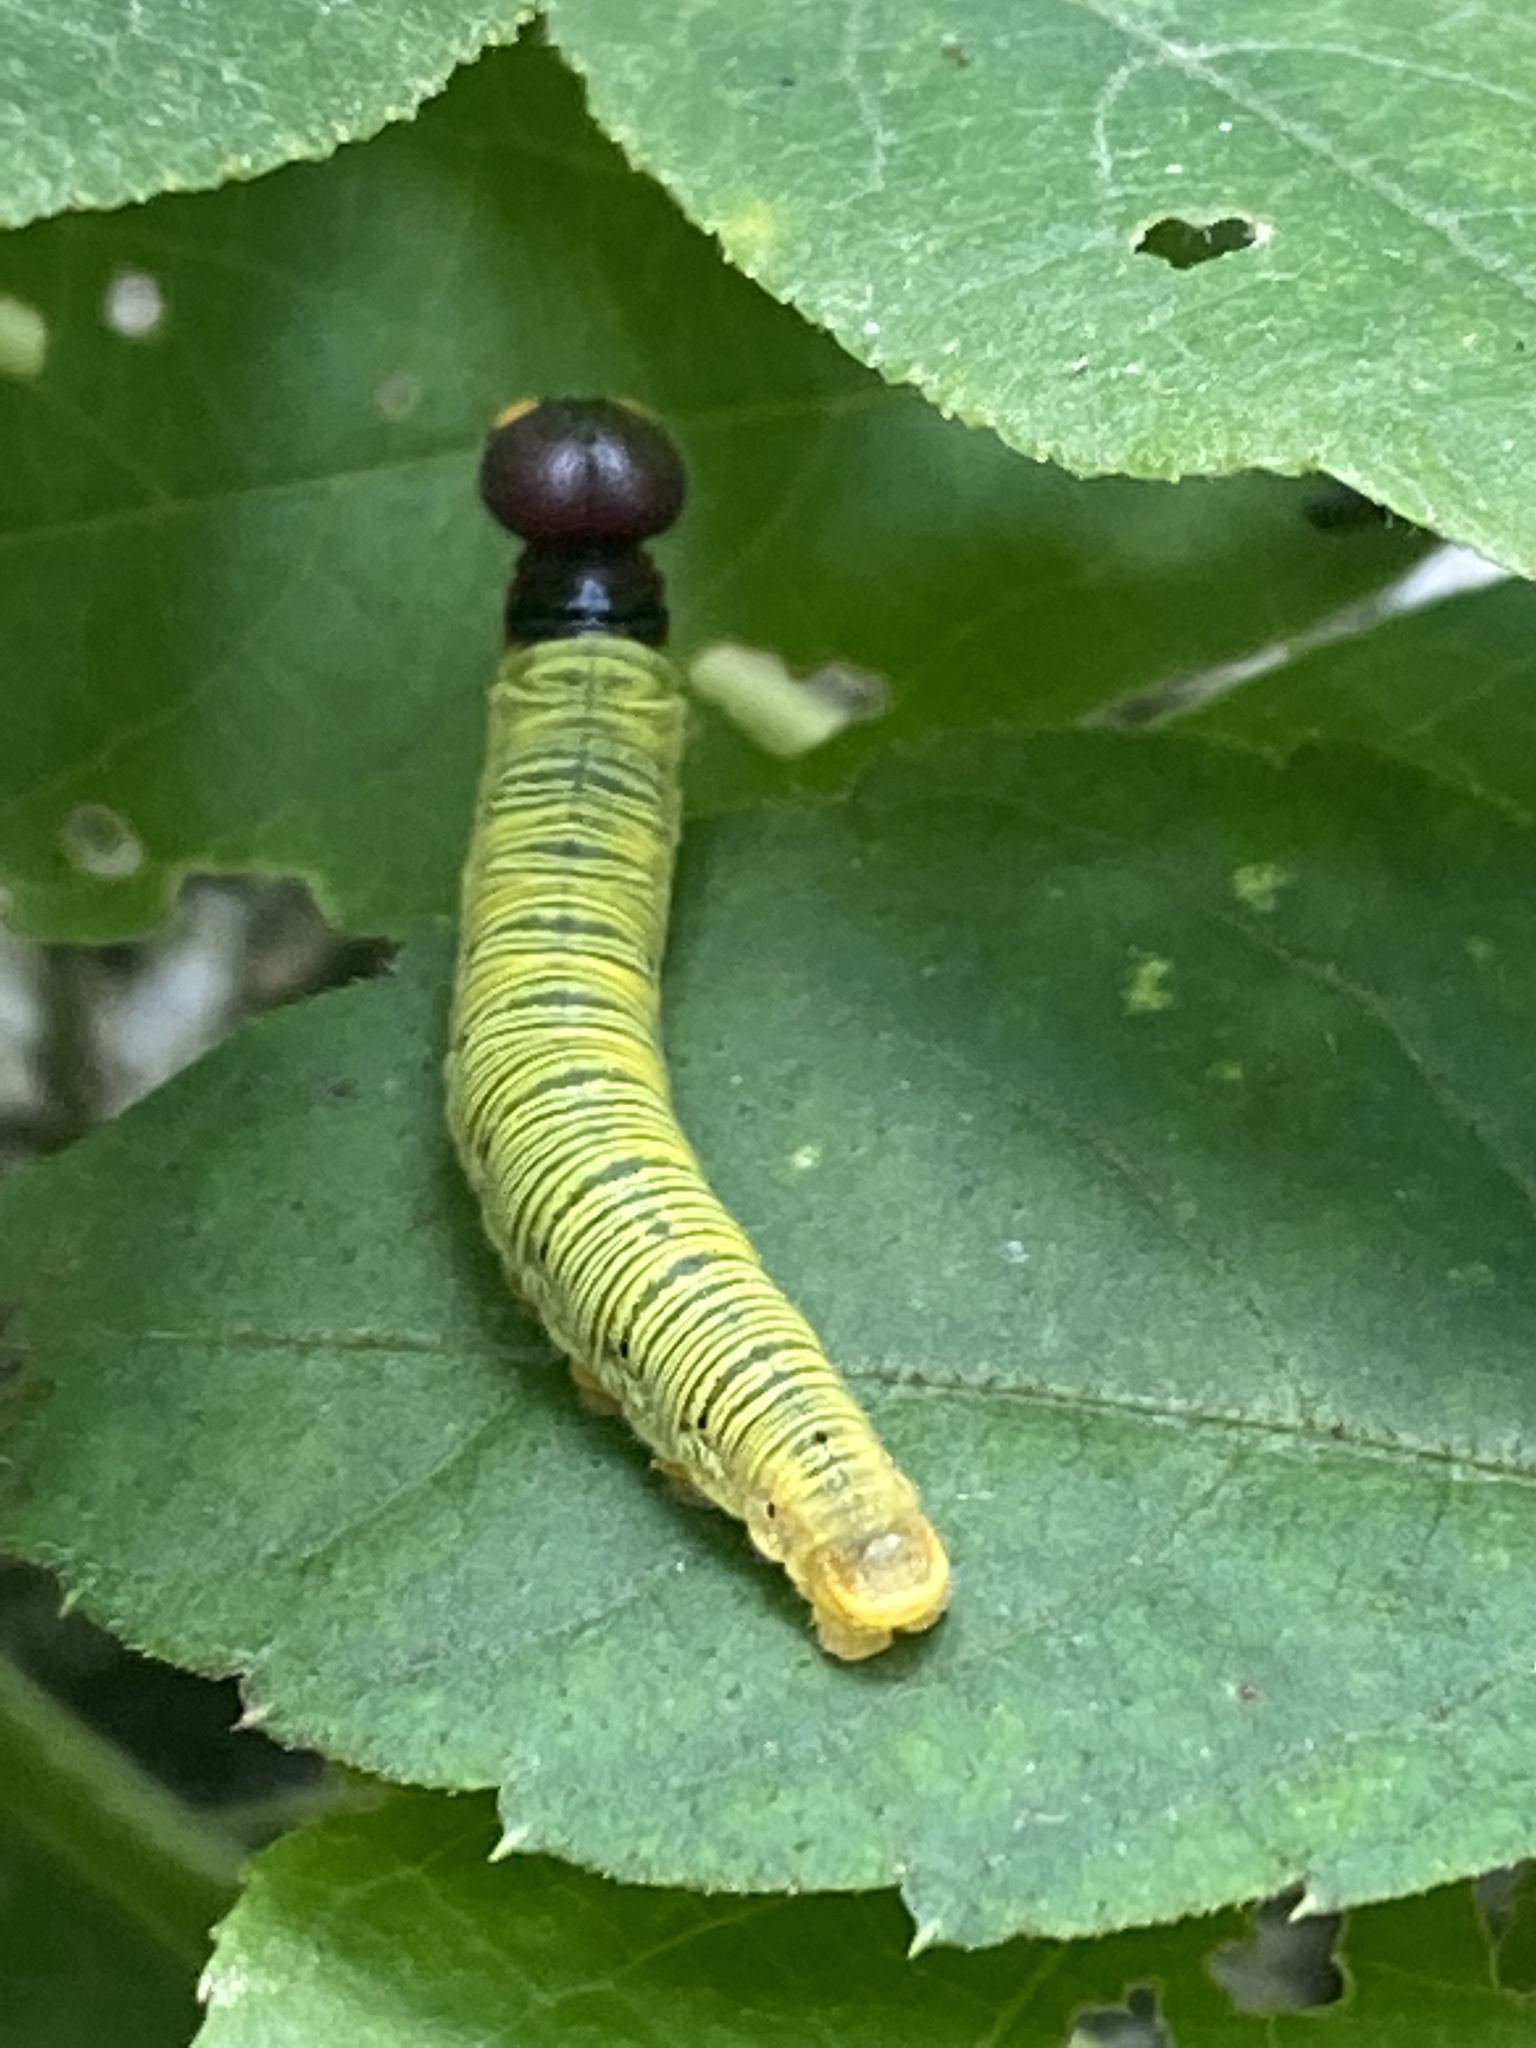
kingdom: Animalia
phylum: Arthropoda
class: Insecta
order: Lepidoptera
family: Hesperiidae
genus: Epargyreus
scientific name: Epargyreus clarus
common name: Silver-spotted skipper
